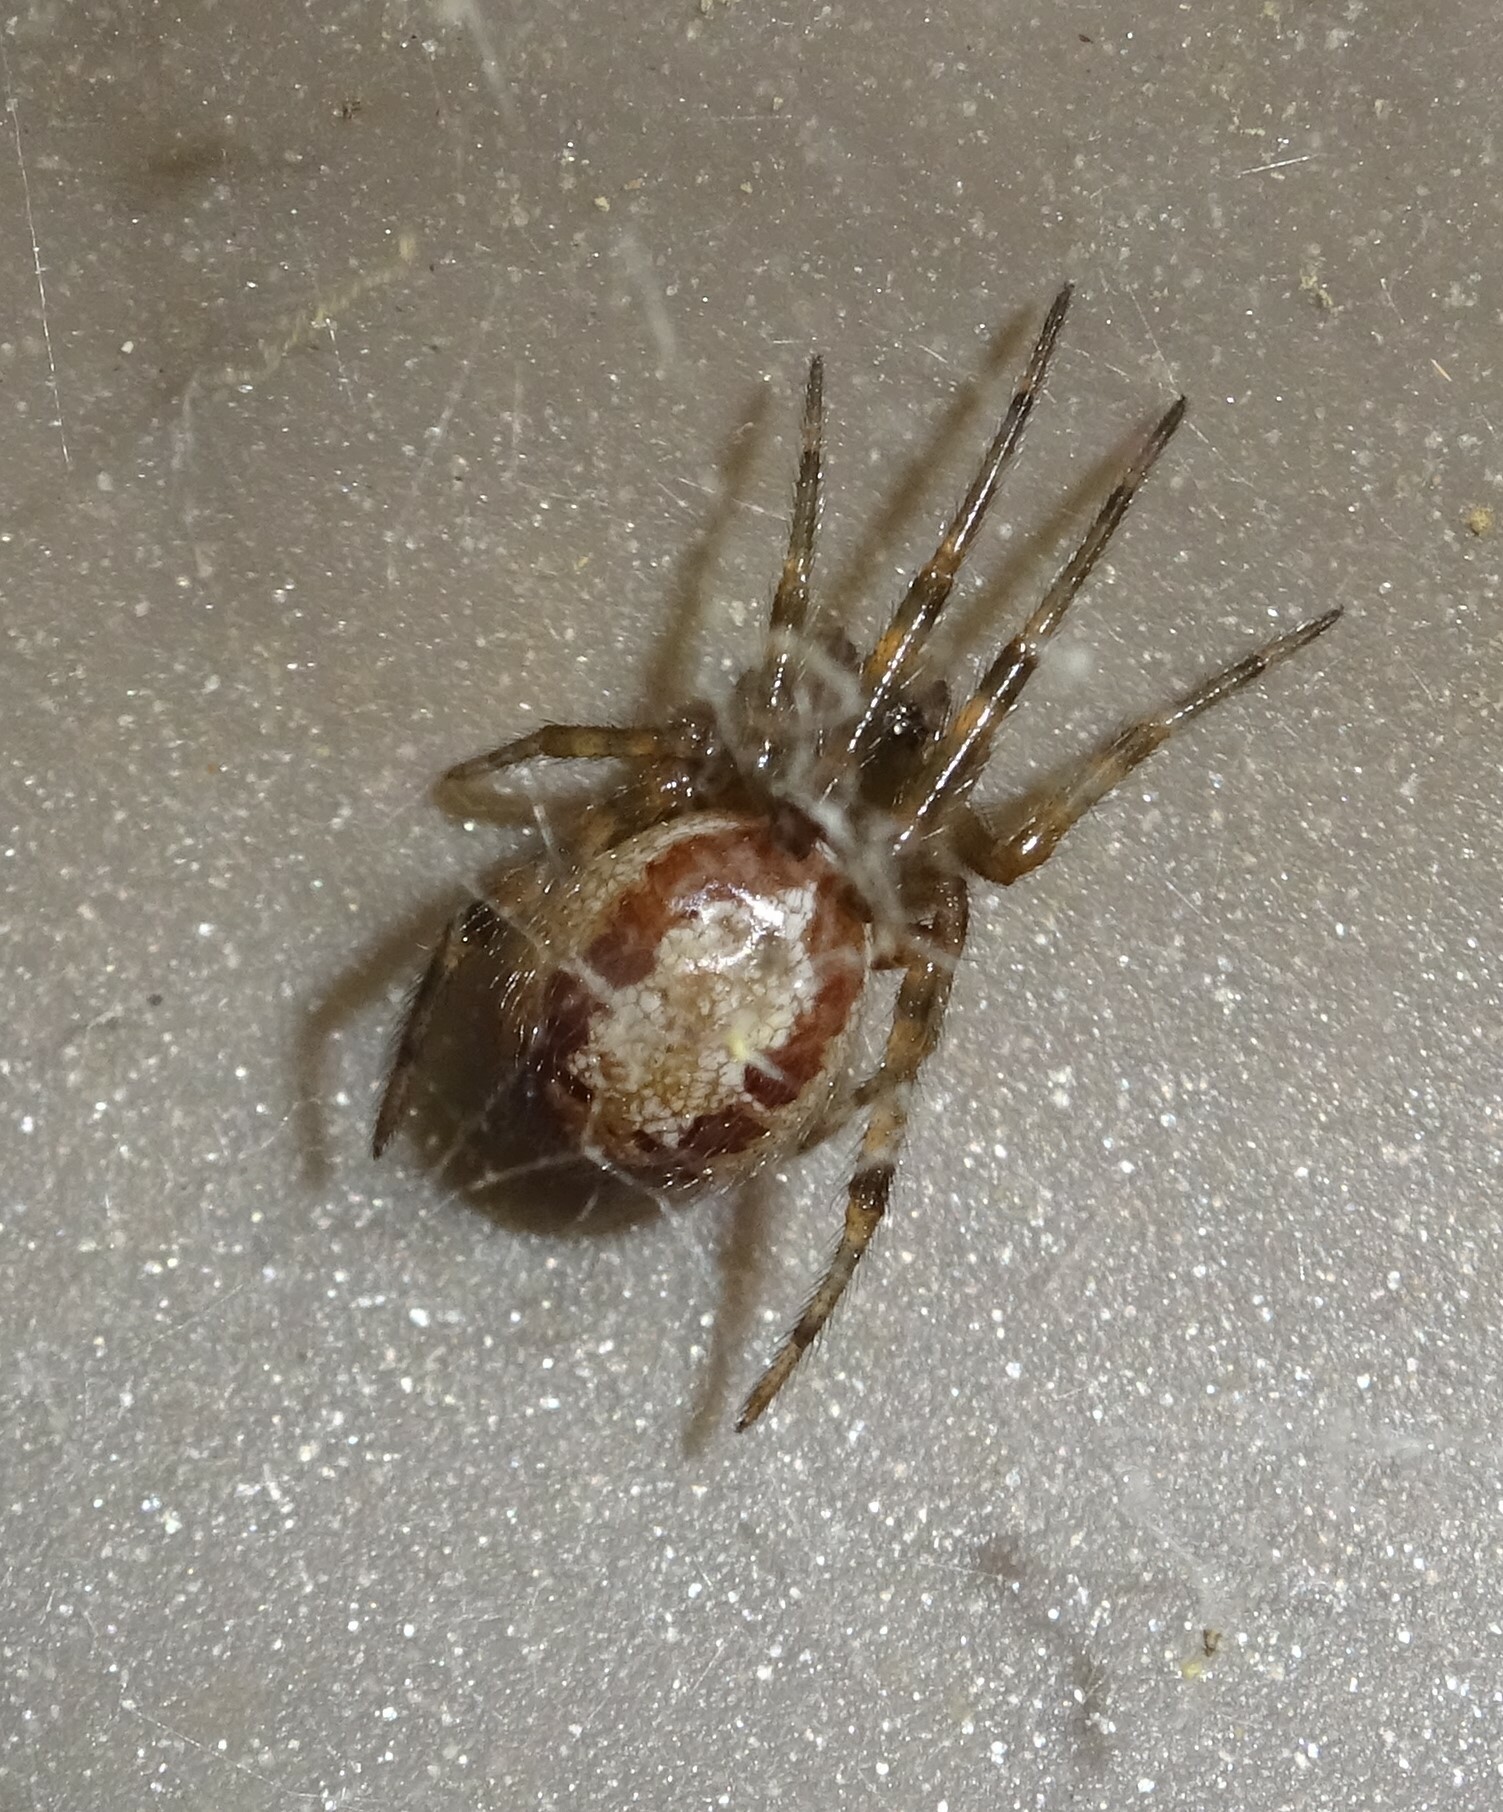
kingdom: Animalia
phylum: Arthropoda
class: Arachnida
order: Araneae
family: Theridiidae
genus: Steatoda
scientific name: Steatoda nobilis
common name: Cobweb weaver
